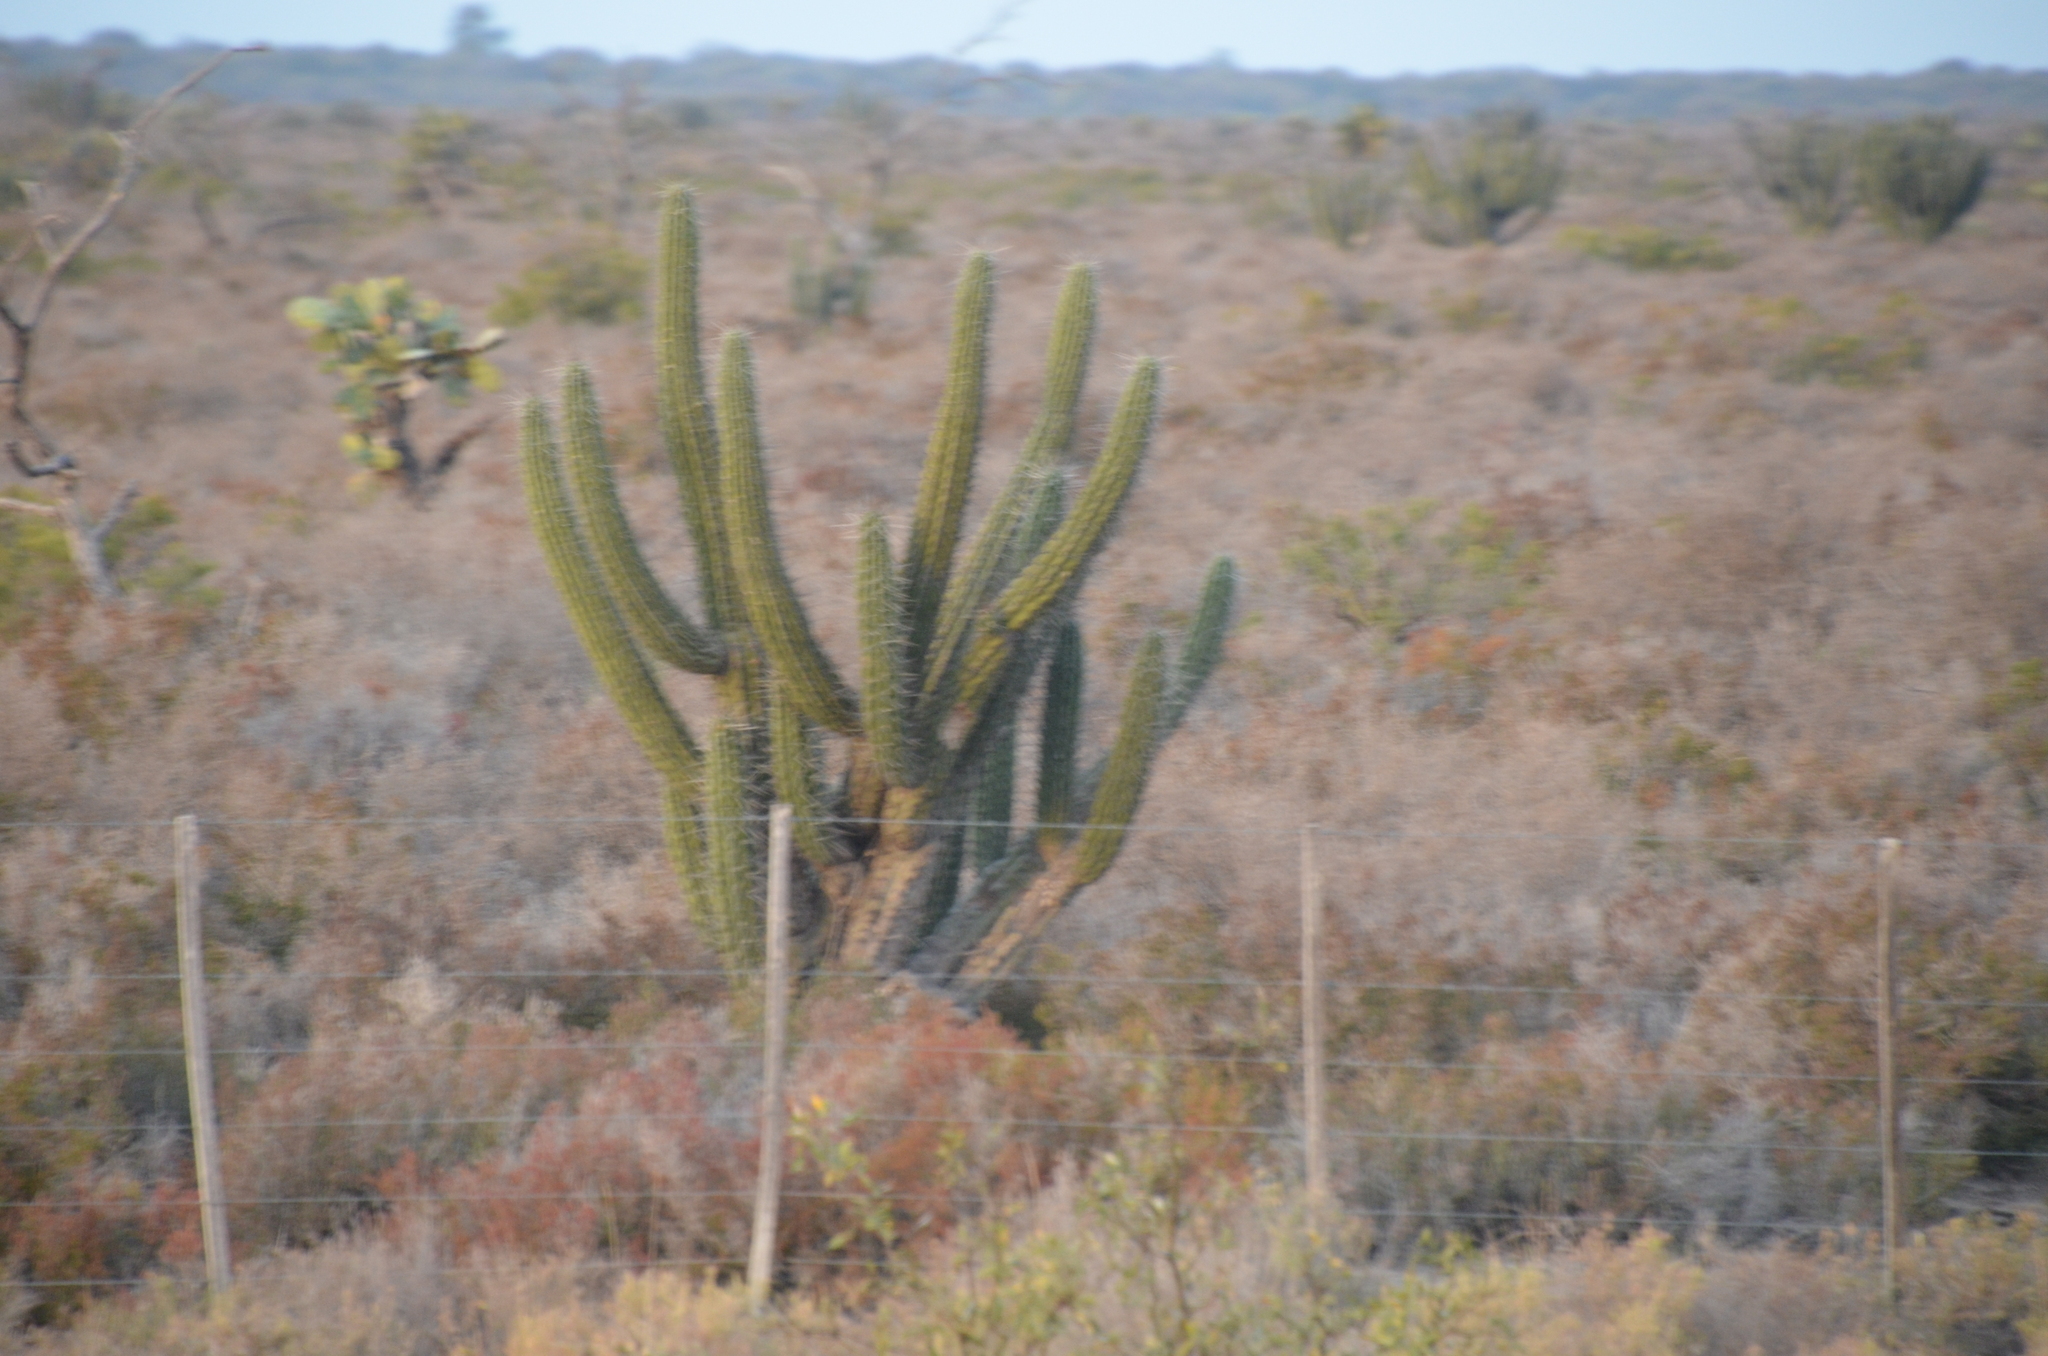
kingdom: Plantae
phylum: Tracheophyta
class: Magnoliopsida
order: Caryophyllales
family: Cactaceae
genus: Stetsonia
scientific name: Stetsonia coryne
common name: Toothpick cactus
